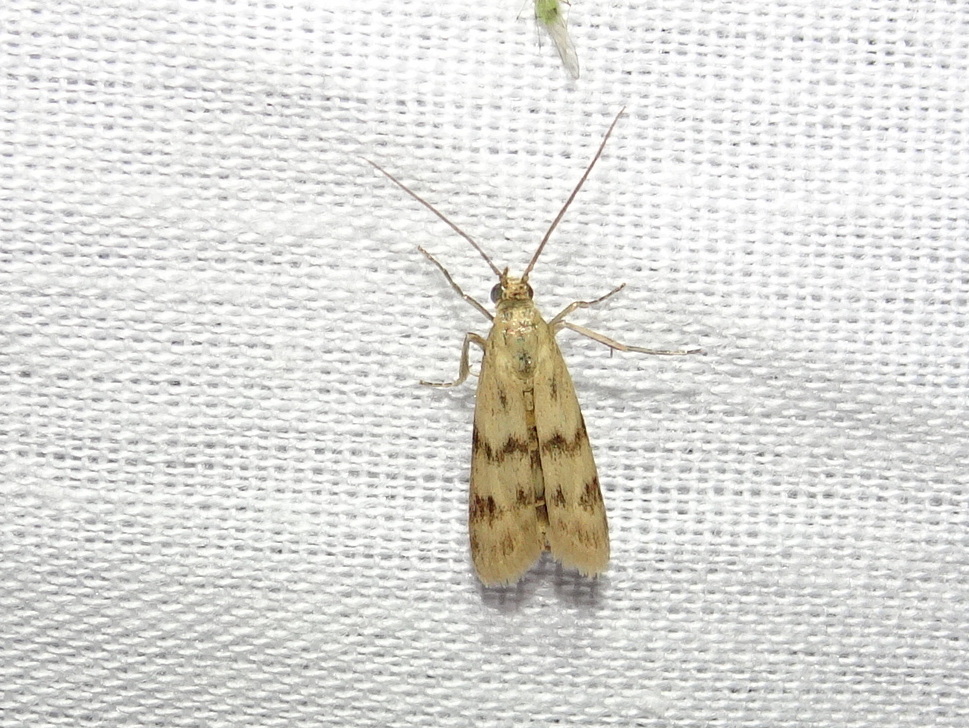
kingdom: Animalia
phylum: Arthropoda
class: Insecta
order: Lepidoptera
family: Pyralidae
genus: Homoeosoma
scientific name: Homoeosoma sinuella
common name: Twin-barred knot-horn
